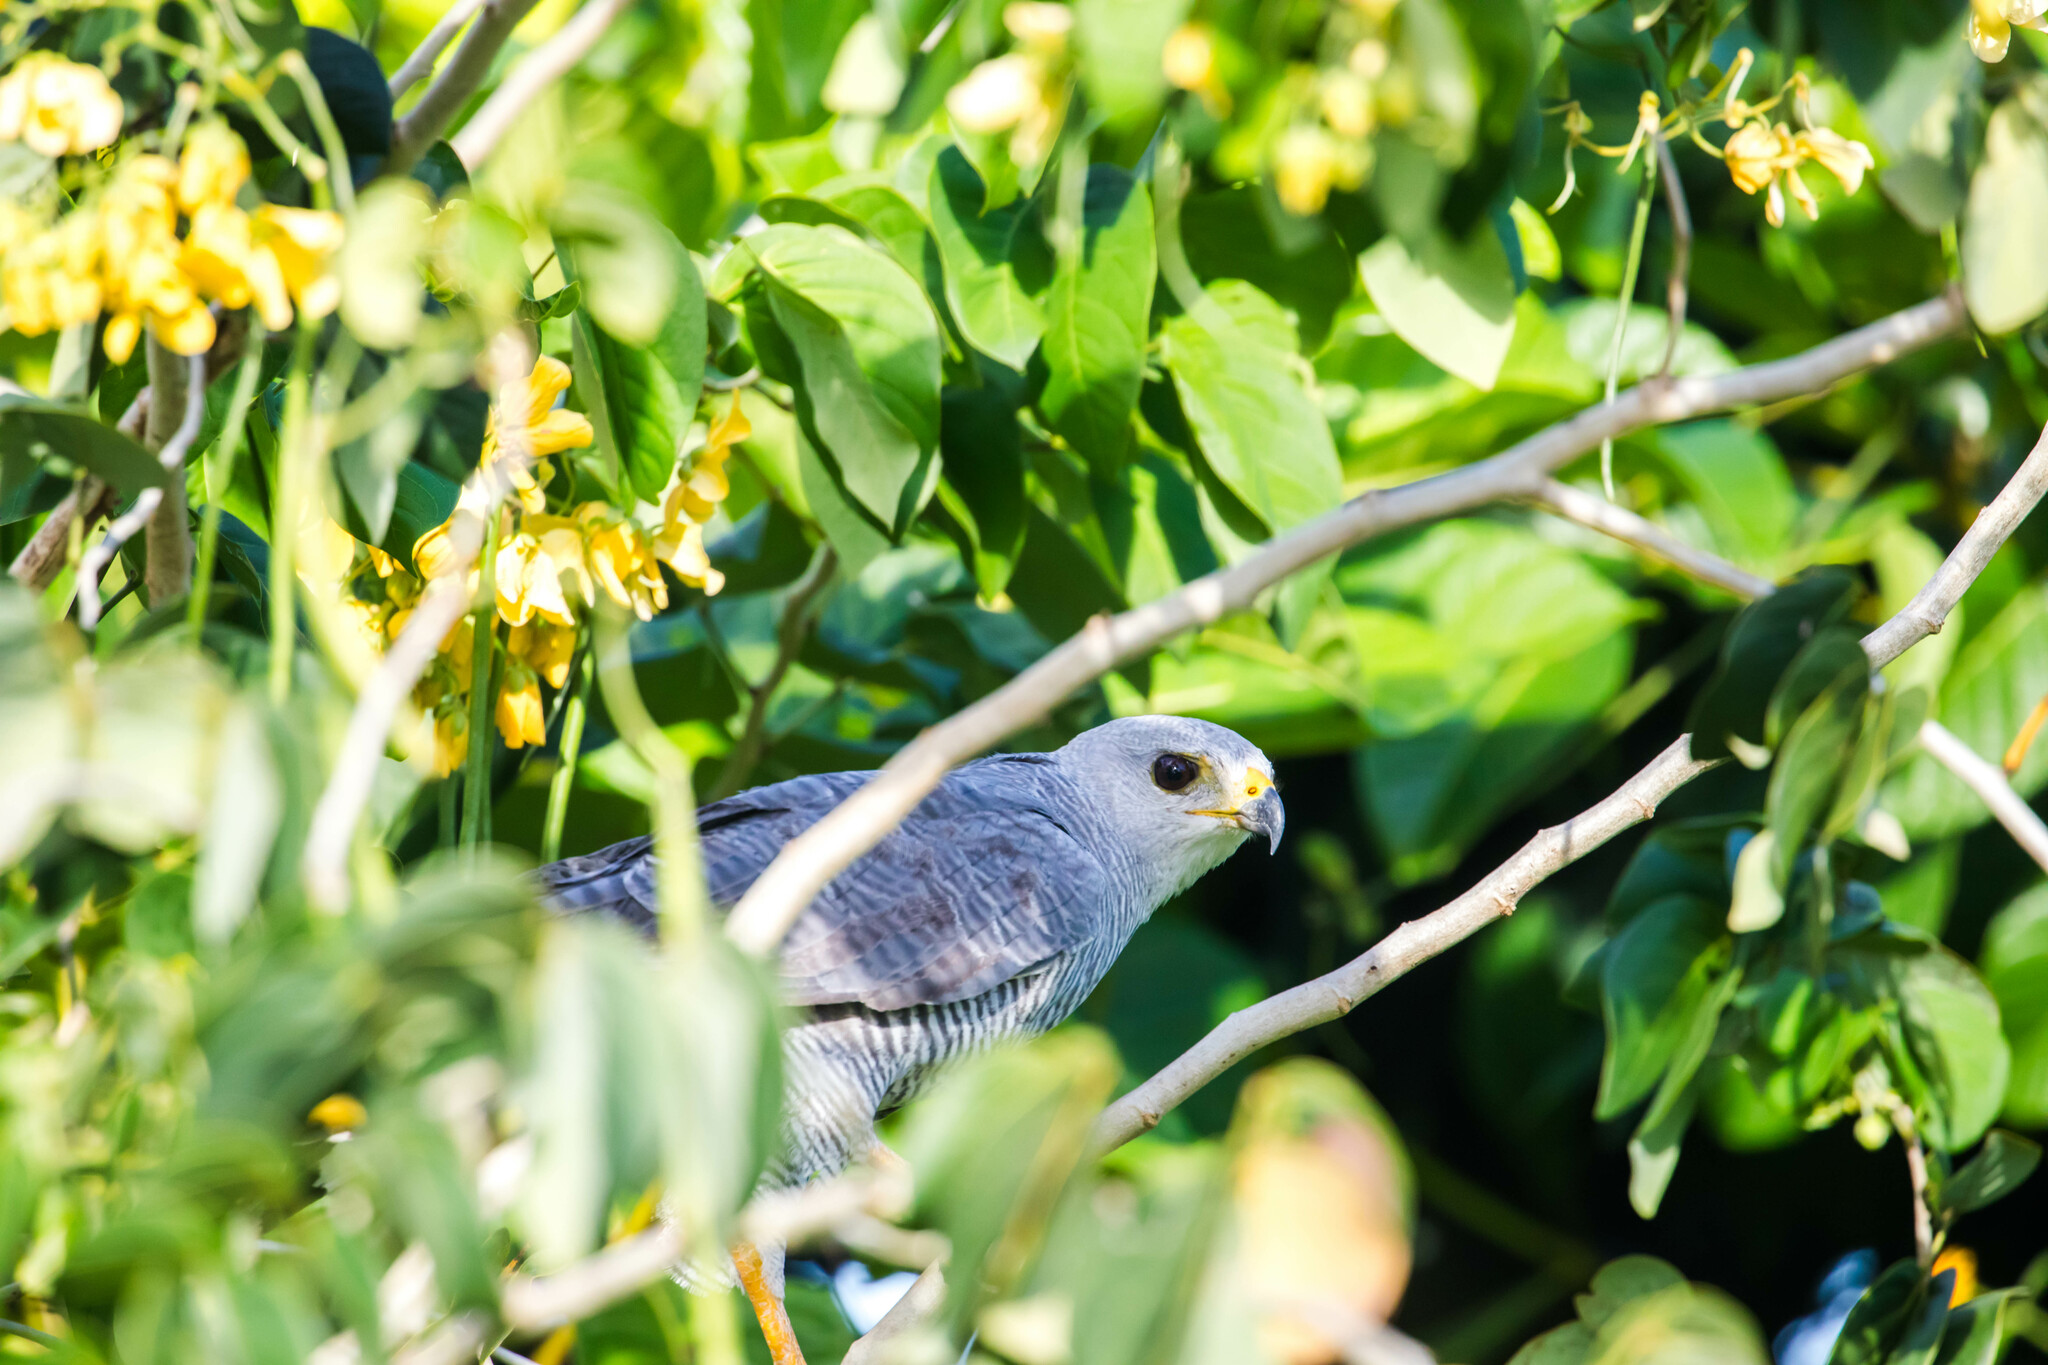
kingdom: Animalia
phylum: Chordata
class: Aves
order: Accipitriformes
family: Accipitridae
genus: Buteo
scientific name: Buteo nitidus
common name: Grey-lined hawk
